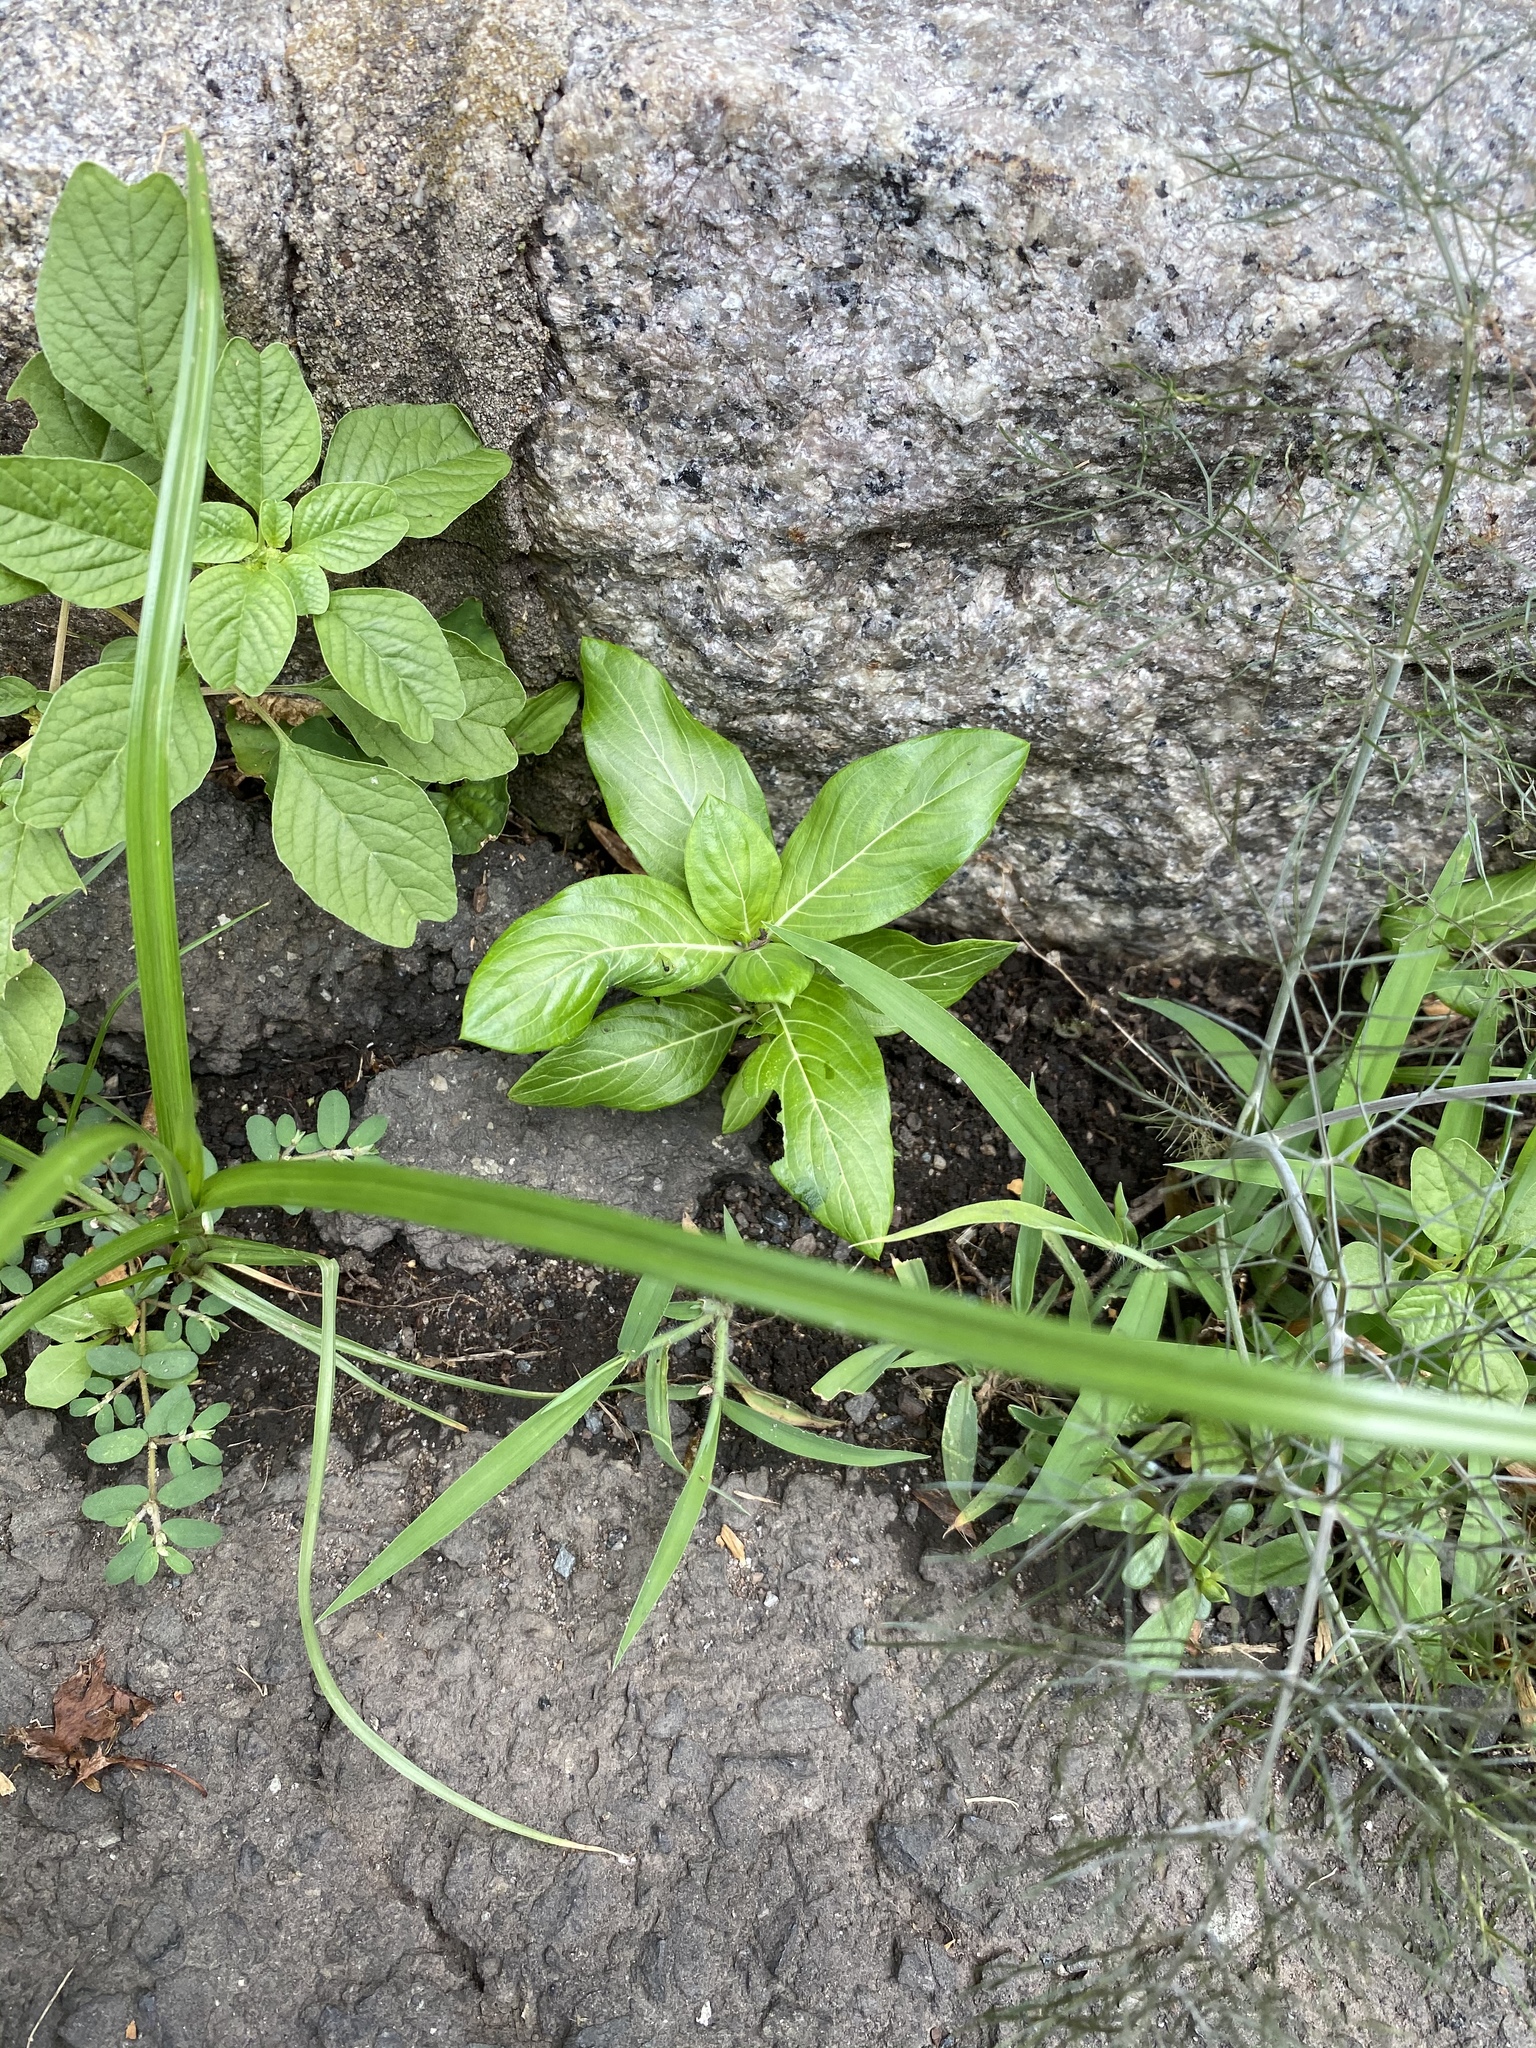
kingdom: Plantae
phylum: Tracheophyta
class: Magnoliopsida
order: Gentianales
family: Apocynaceae
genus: Catharanthus
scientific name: Catharanthus roseus
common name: Madagascar periwinkle
